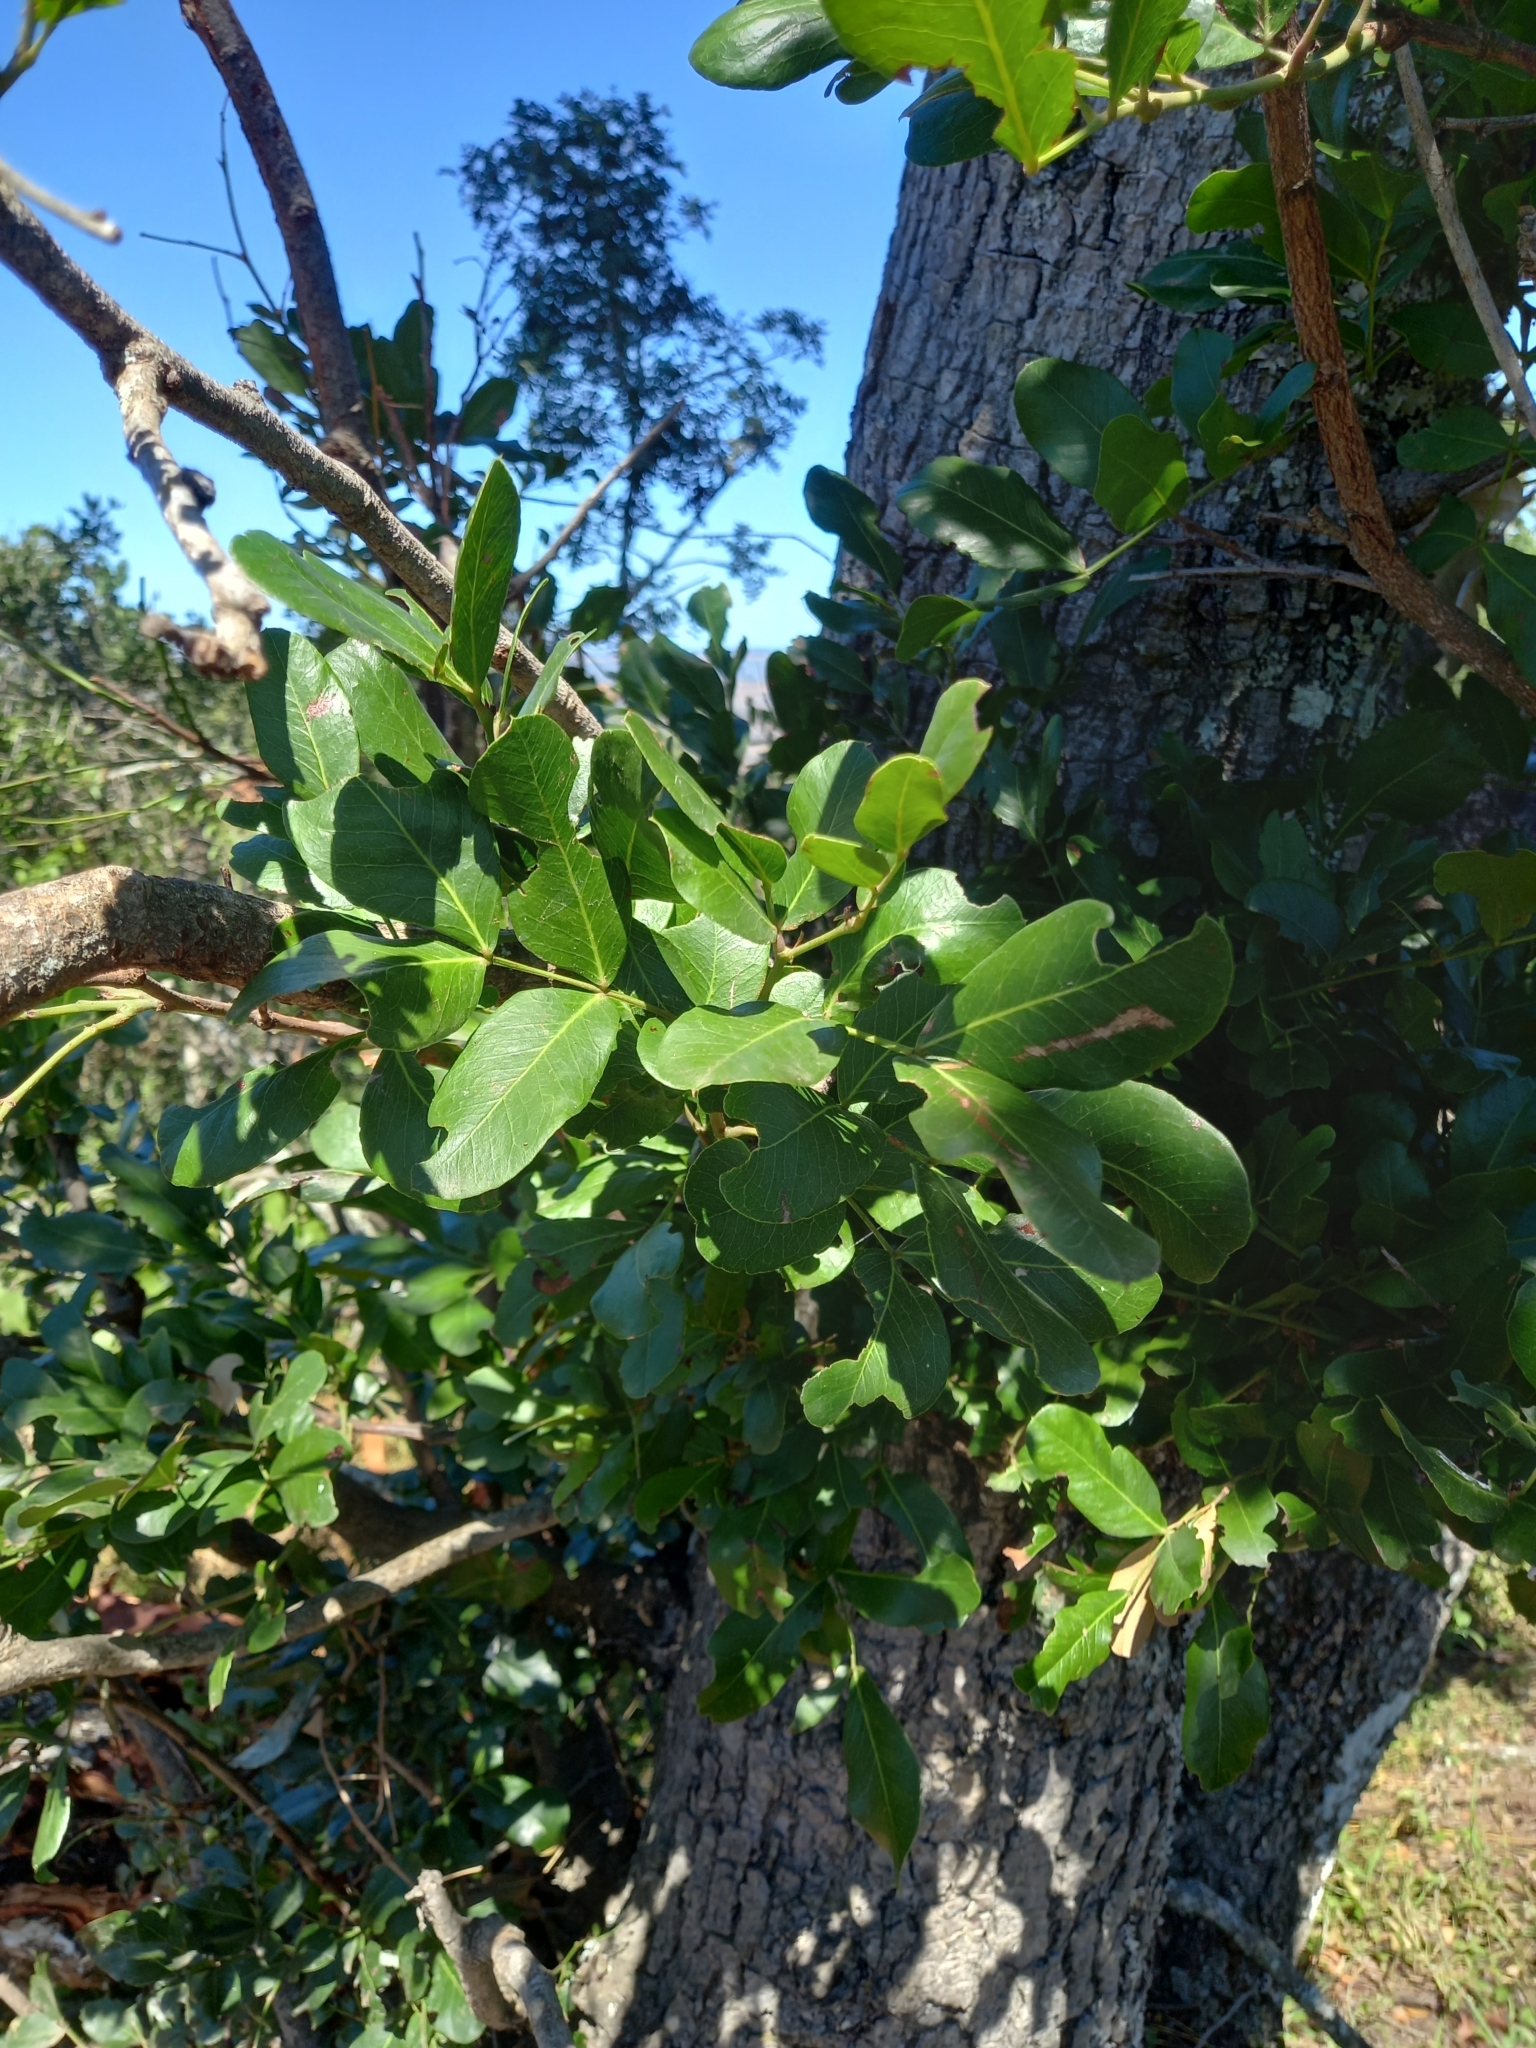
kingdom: Plantae
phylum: Tracheophyta
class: Magnoliopsida
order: Fabales
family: Fabaceae
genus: Schotia
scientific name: Schotia latifolia
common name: Bush boer-bean
